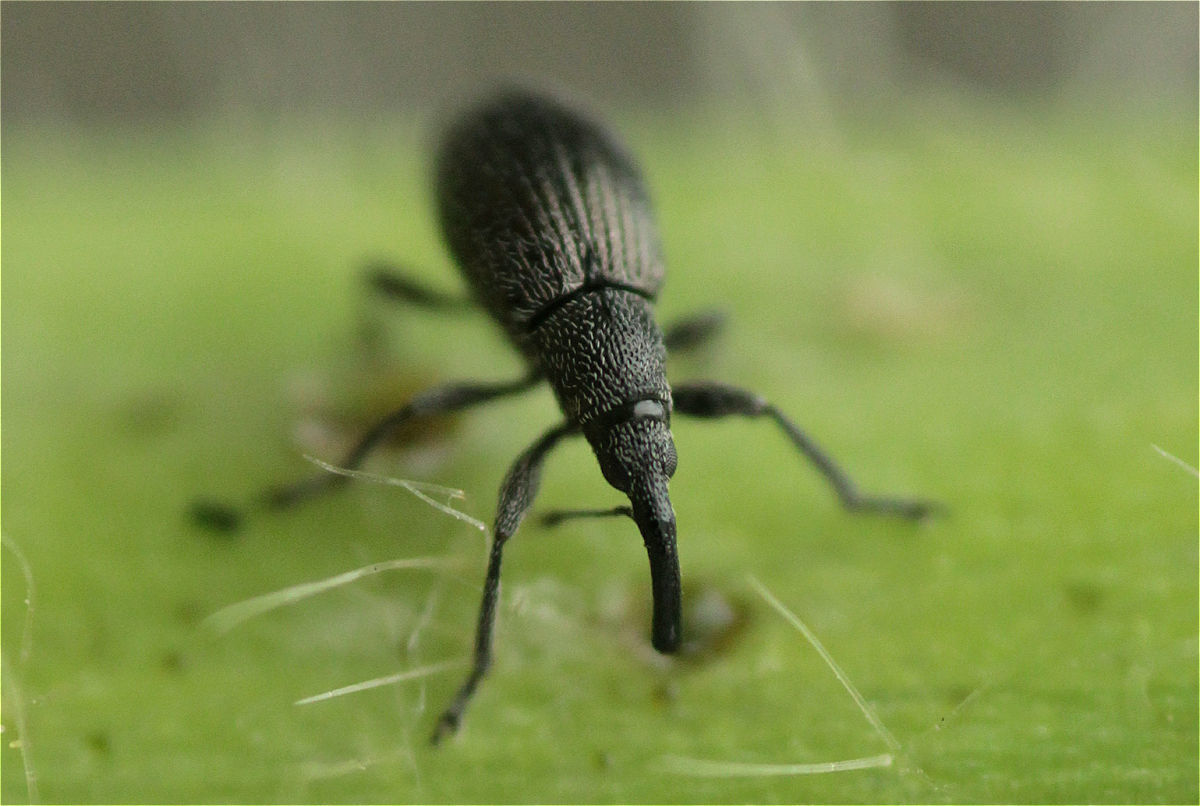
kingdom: Animalia
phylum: Arthropoda
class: Insecta
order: Coleoptera
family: Apionidae
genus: Aspidapion
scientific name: Aspidapion radiolus
